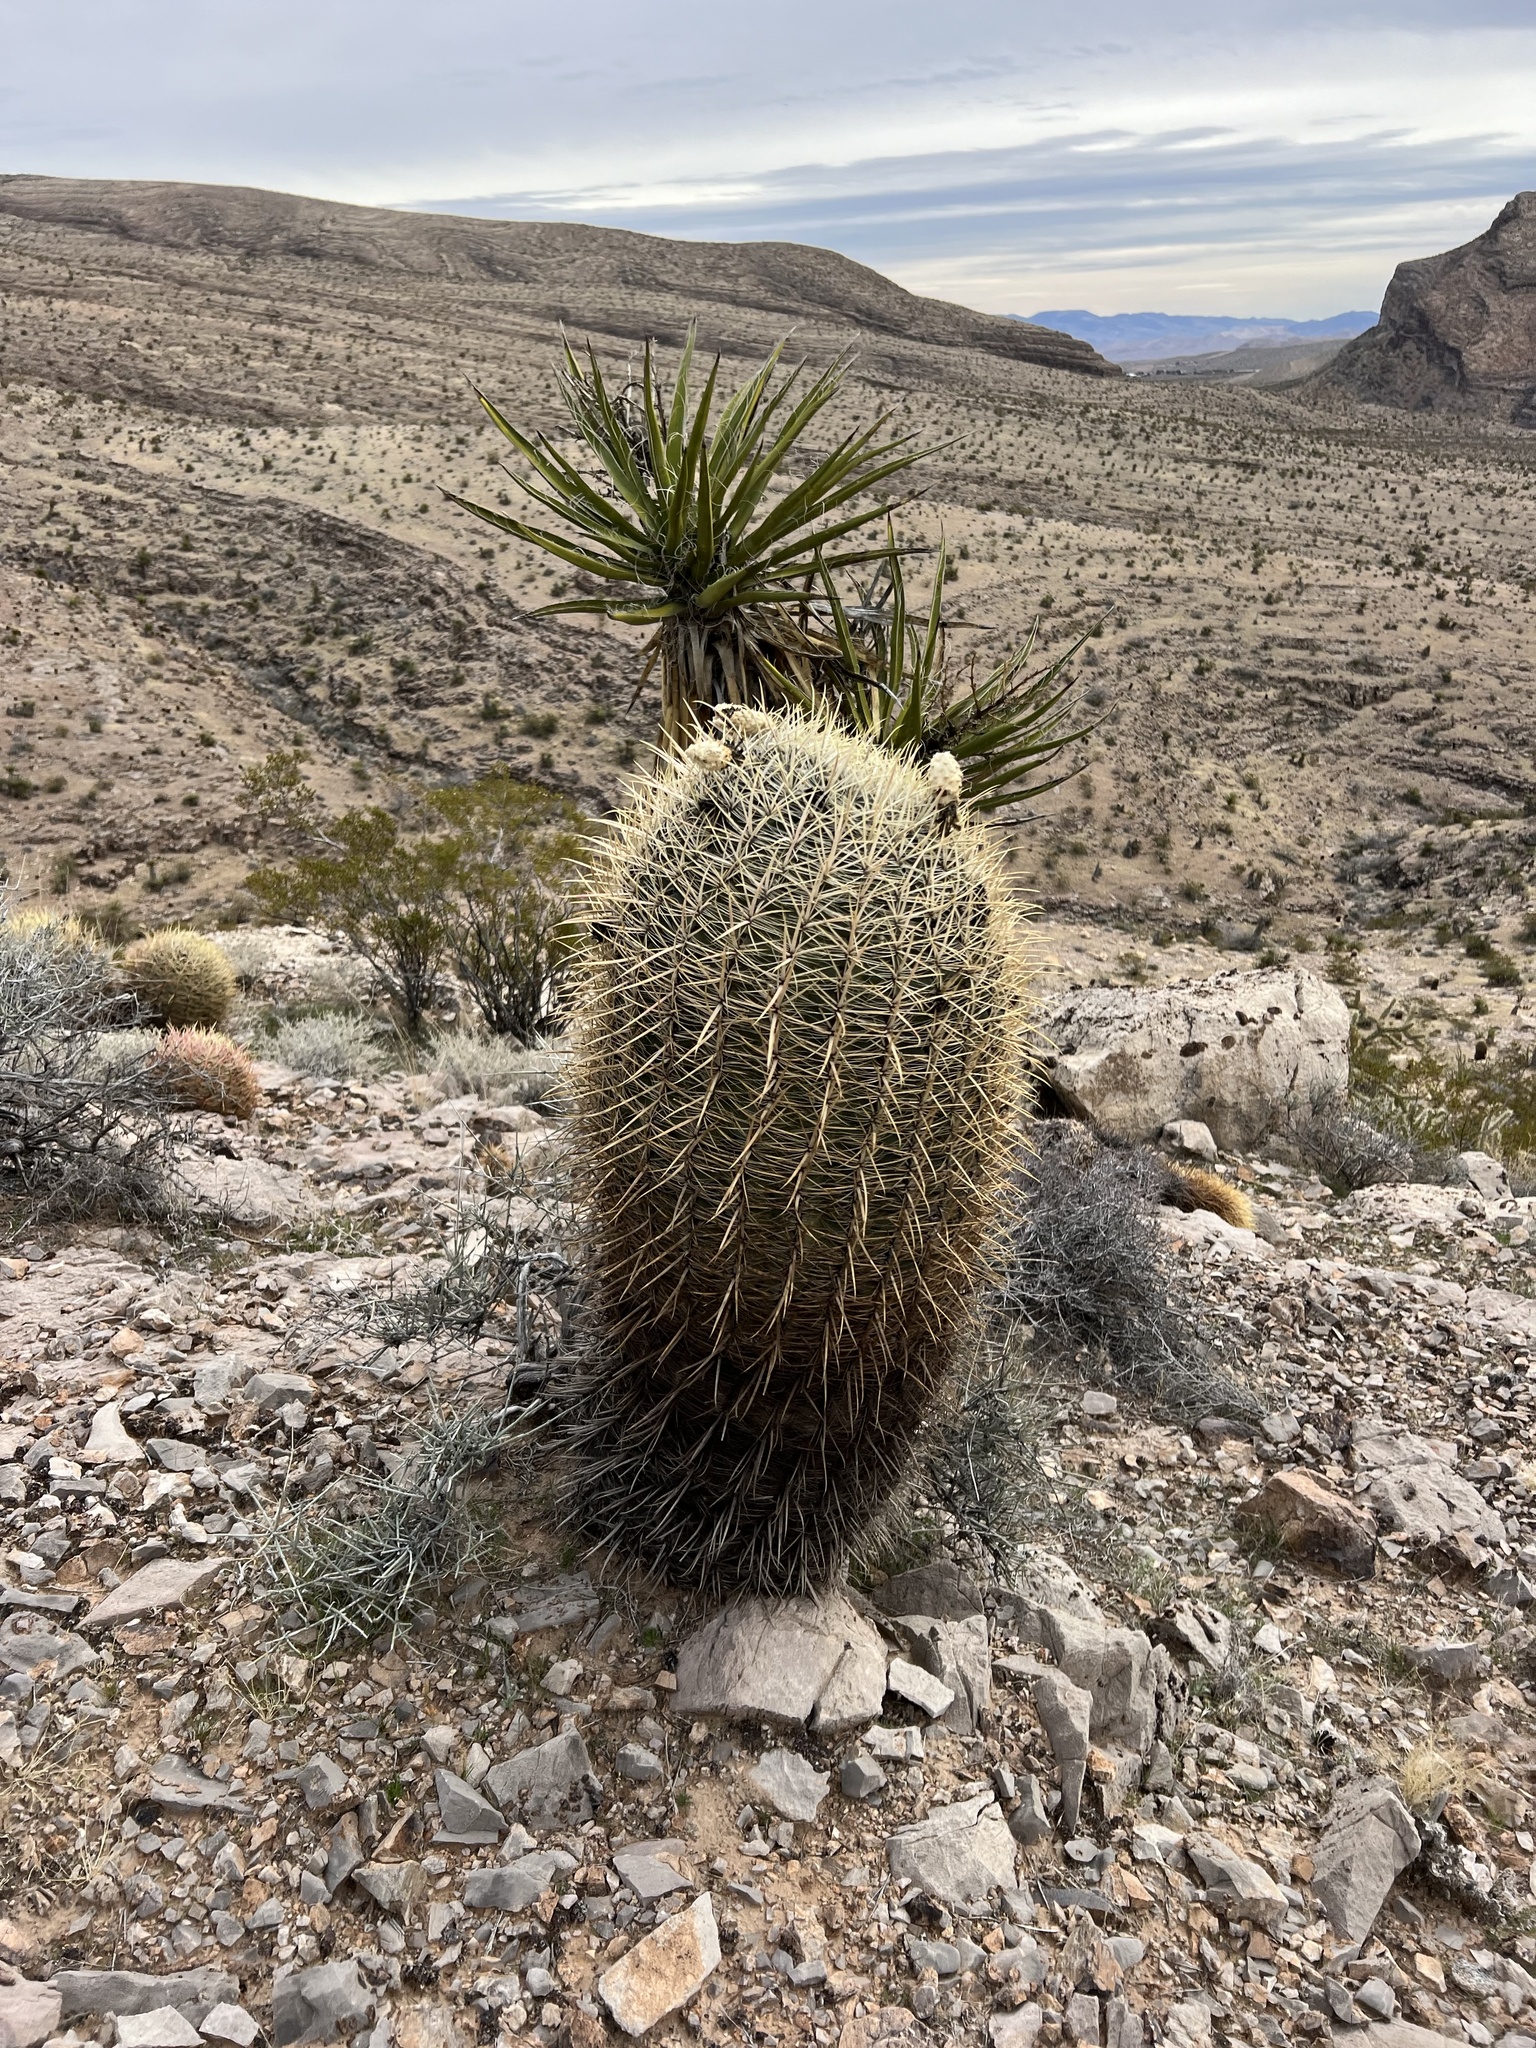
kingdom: Plantae
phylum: Tracheophyta
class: Magnoliopsida
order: Caryophyllales
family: Cactaceae
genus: Ferocactus
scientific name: Ferocactus cylindraceus
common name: California barrel cactus
